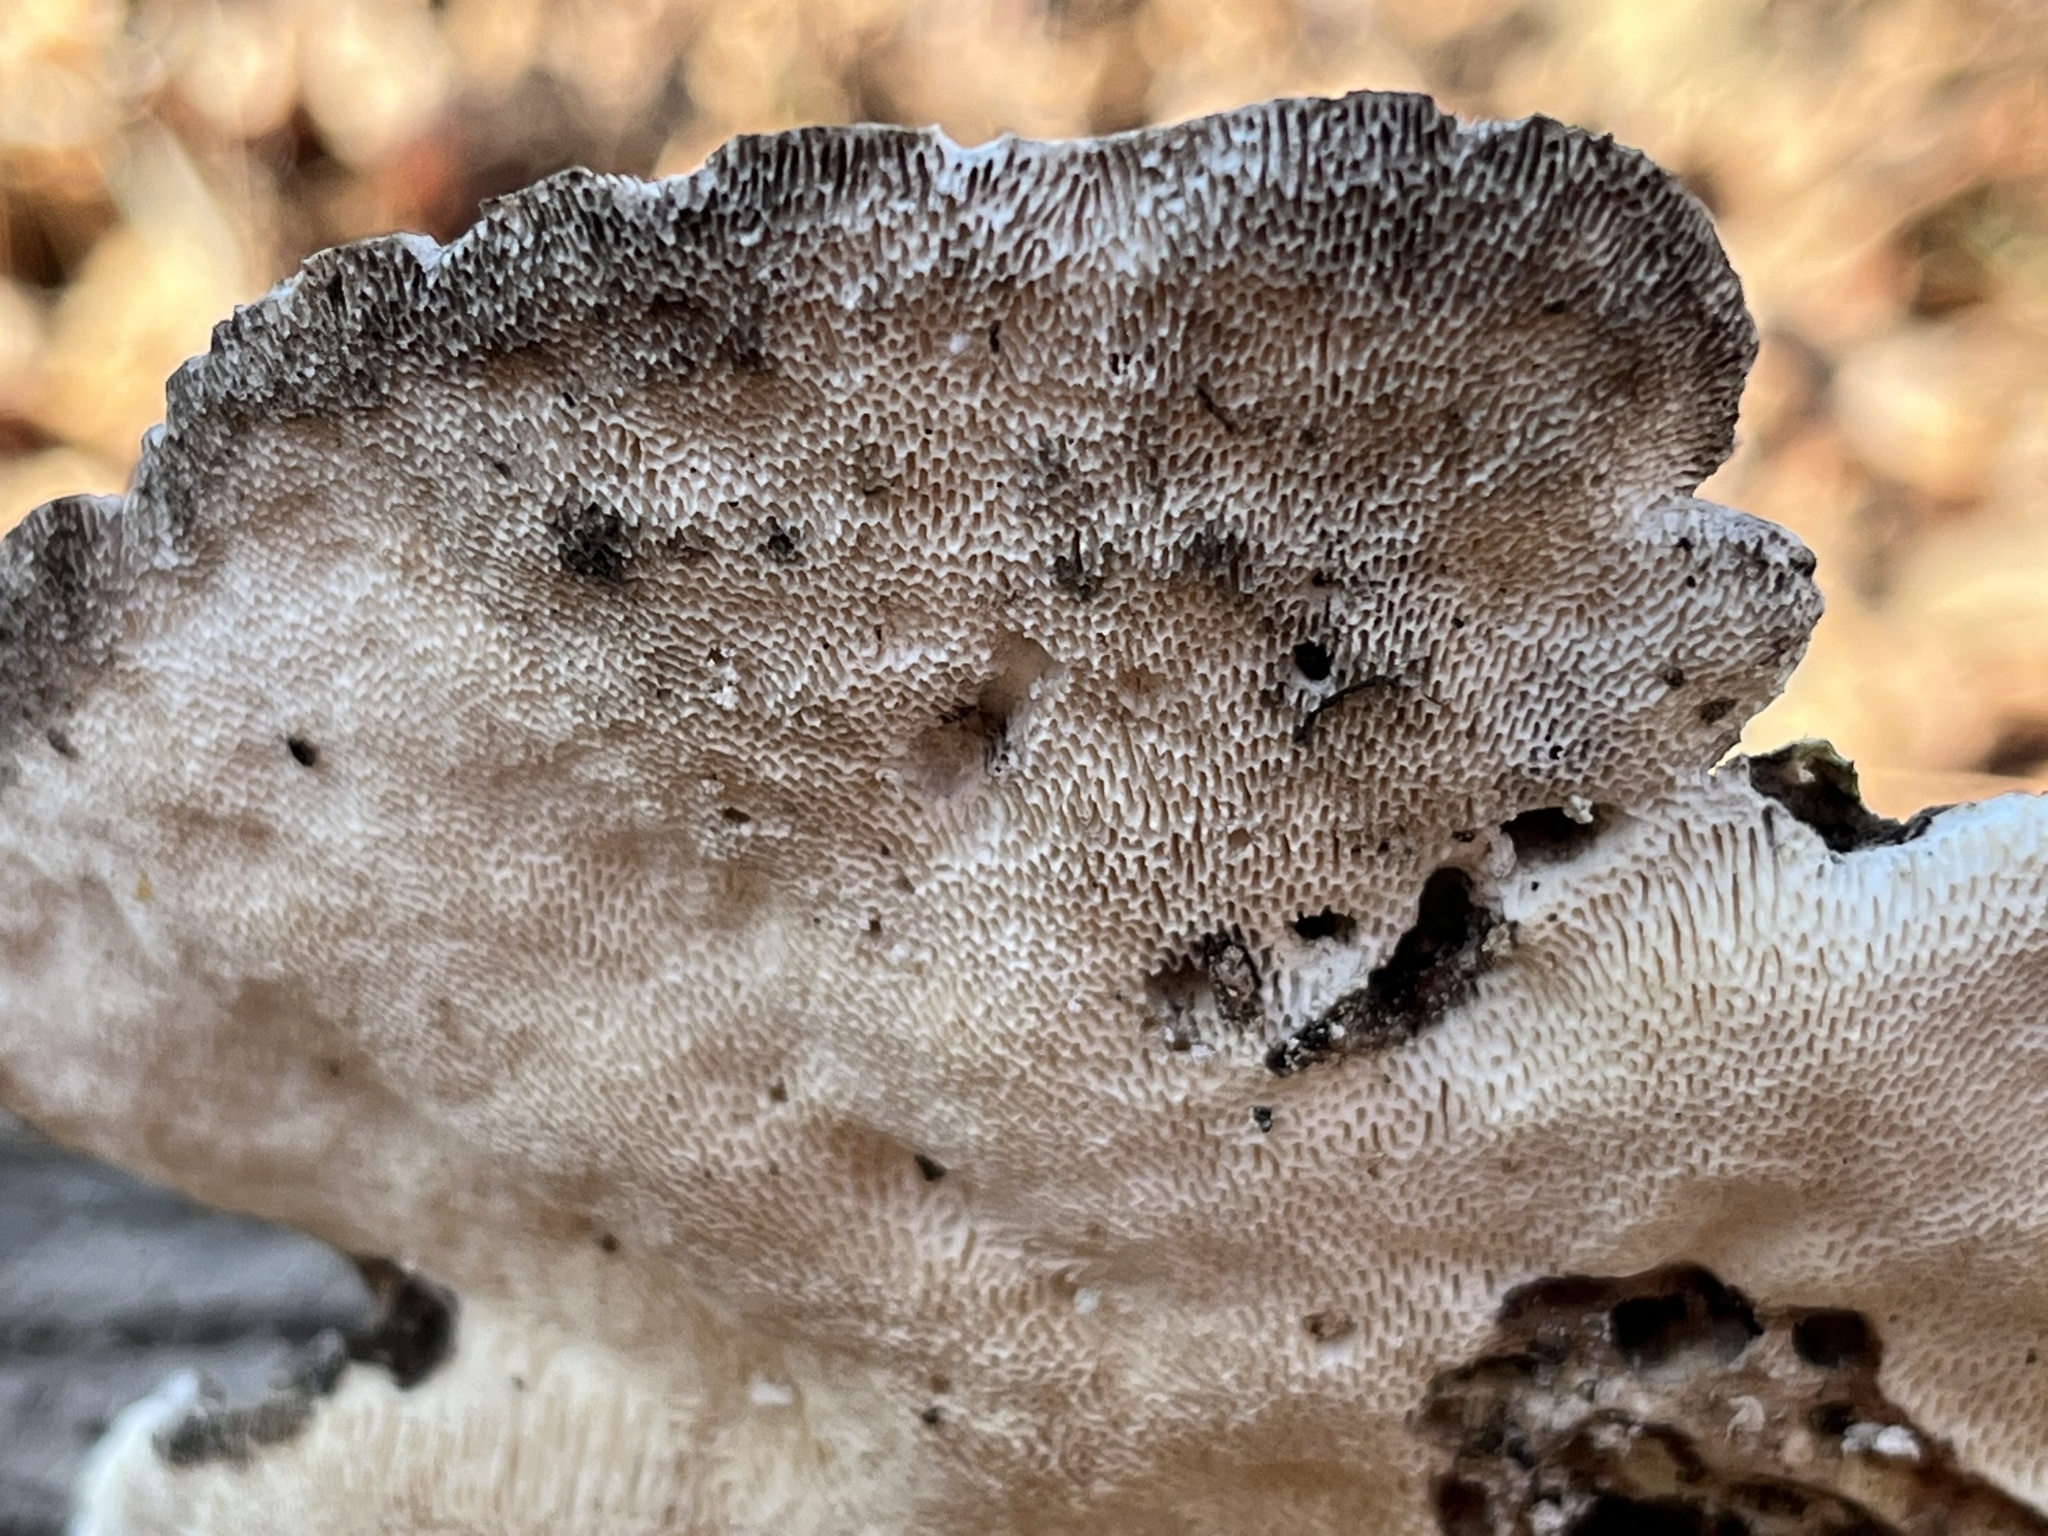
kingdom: Fungi
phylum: Basidiomycota
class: Agaricomycetes
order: Polyporales
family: Polyporaceae
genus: Trametes
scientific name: Trametes gibbosa
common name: Lumpy bracket
